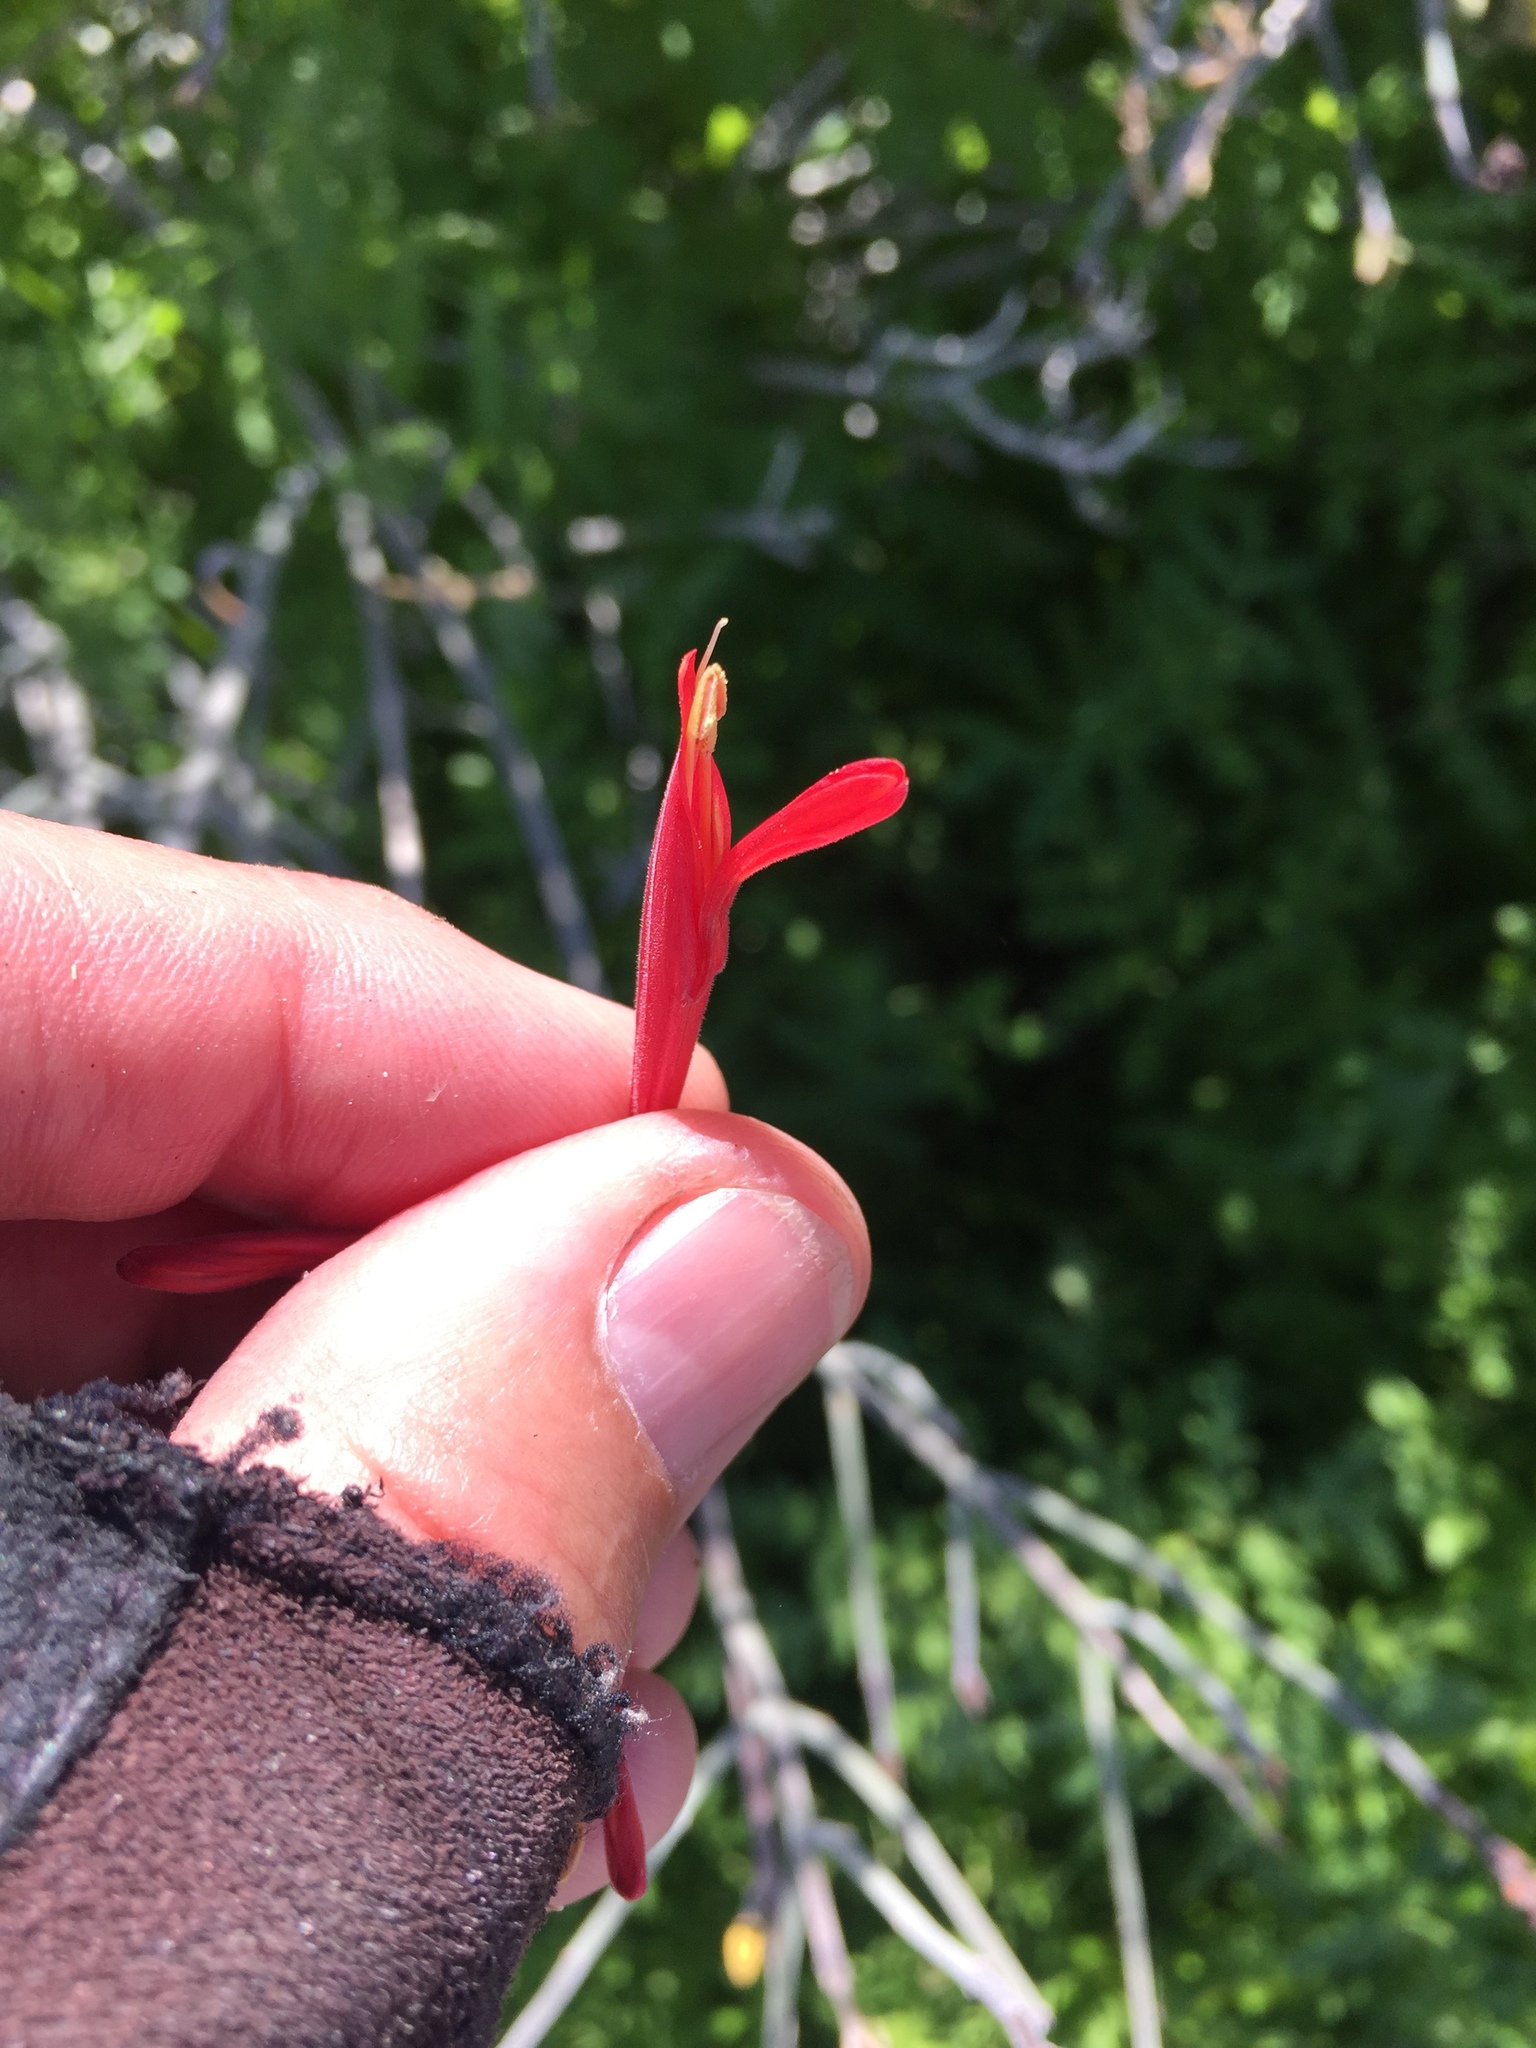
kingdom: Plantae
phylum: Tracheophyta
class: Magnoliopsida
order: Lamiales
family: Acanthaceae
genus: Justicia
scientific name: Justicia californica
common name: Chuparosa-honeysuckle
